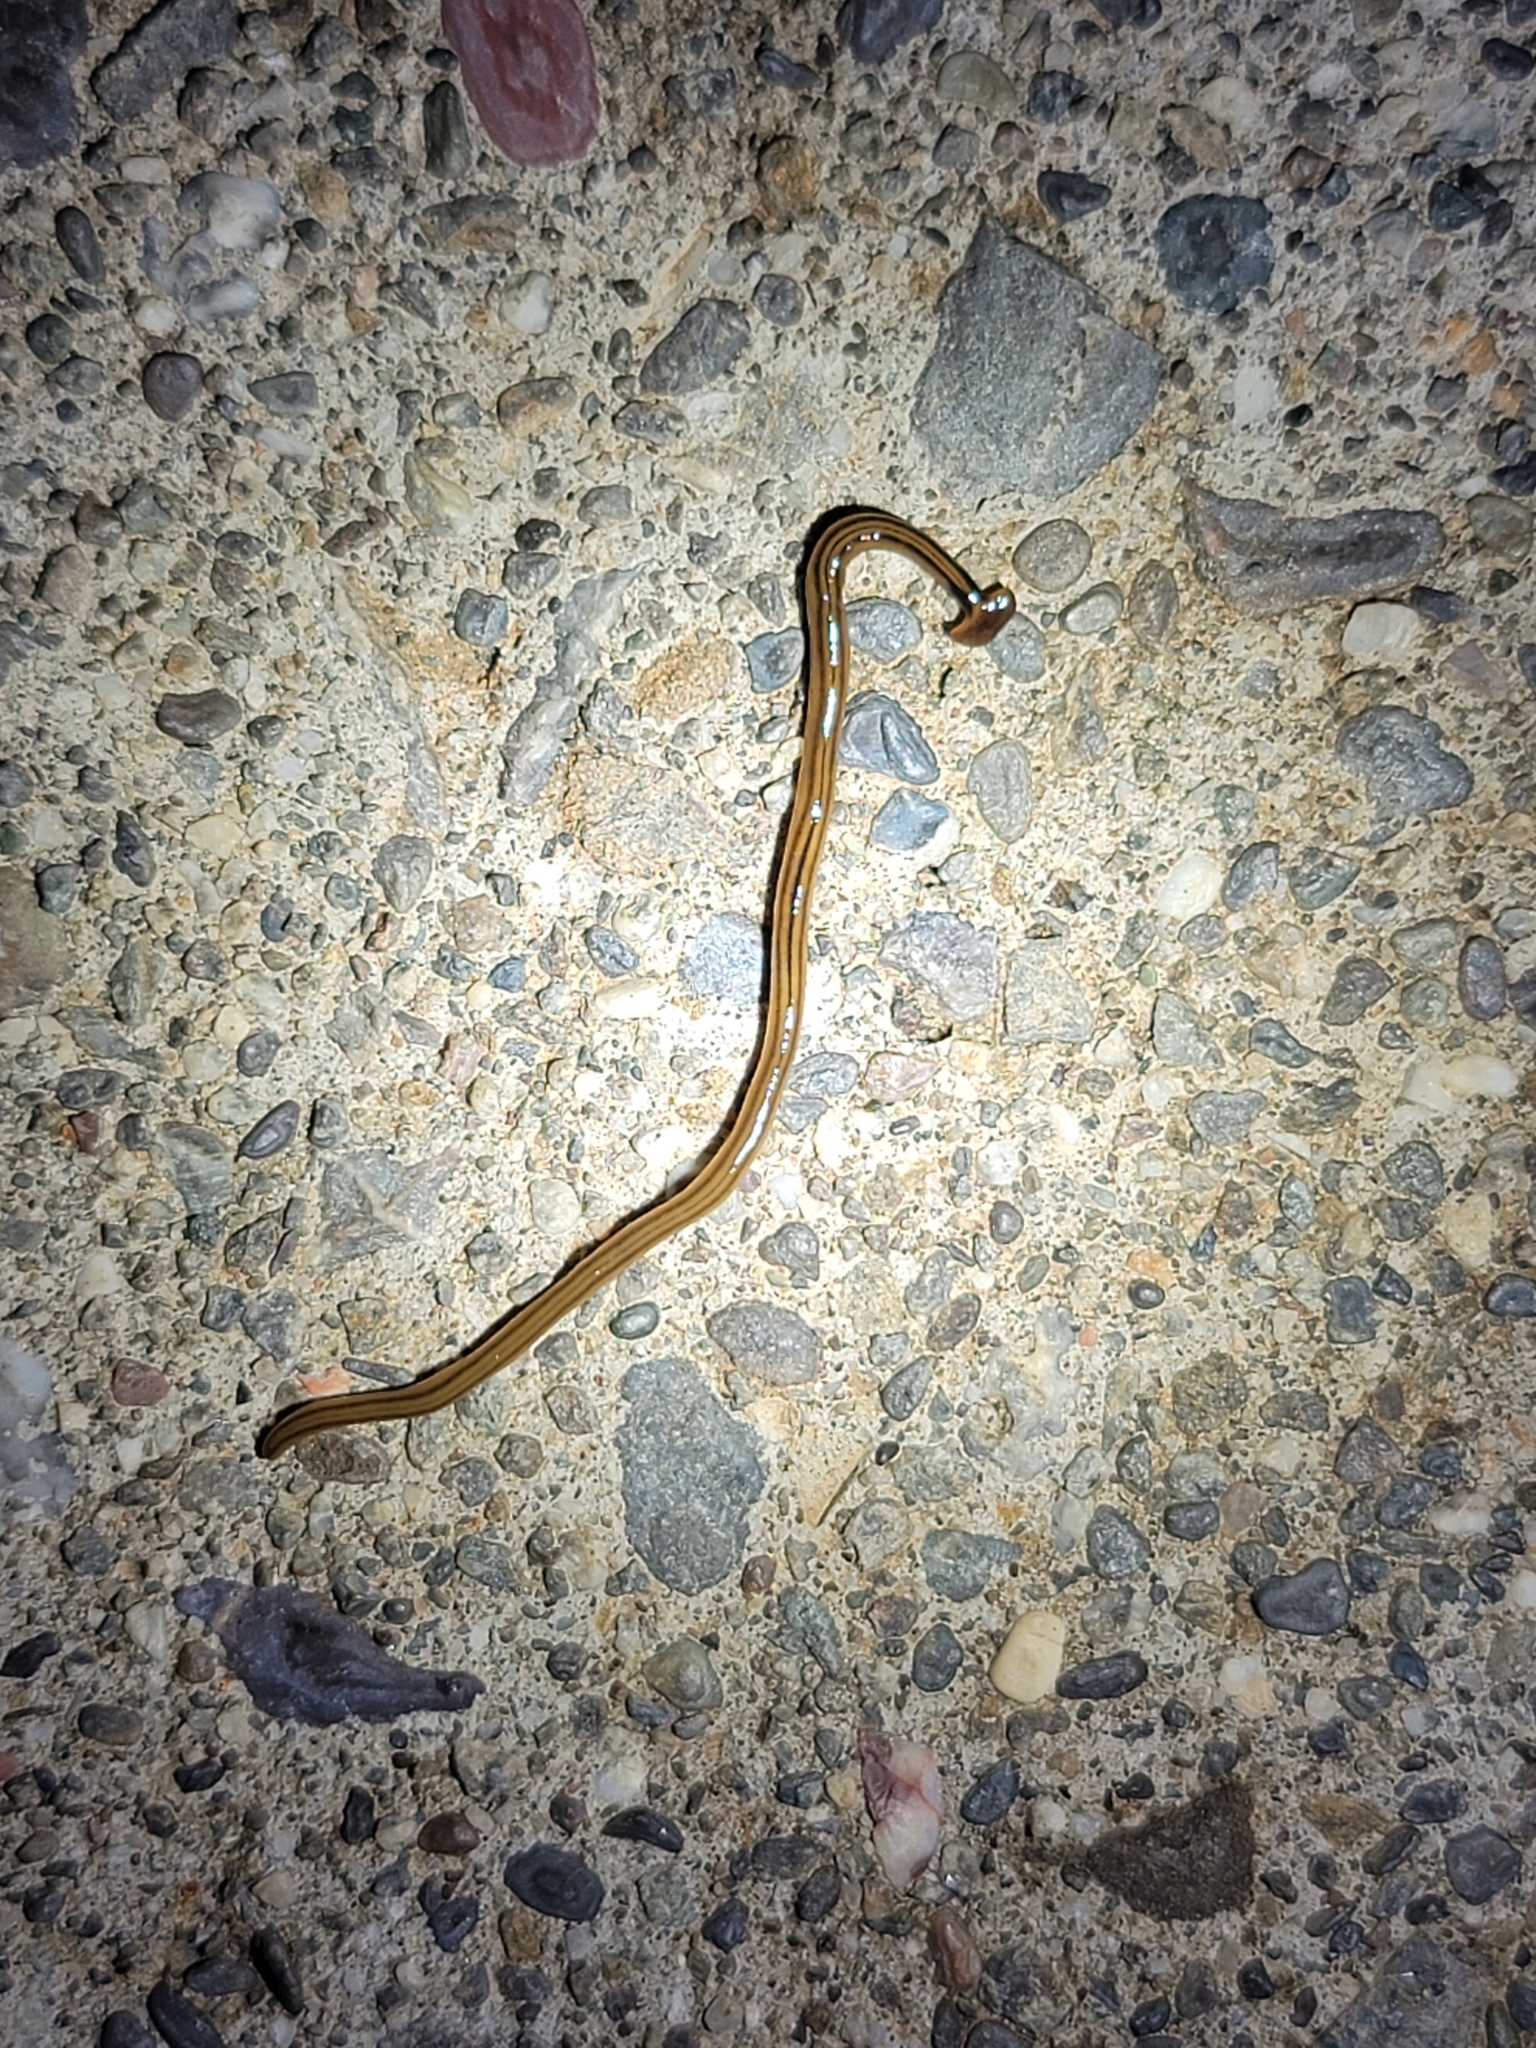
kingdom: Animalia
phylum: Platyhelminthes
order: Tricladida
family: Geoplanidae
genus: Bipalium
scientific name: Bipalium kewense
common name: Hammerhead flatworm
